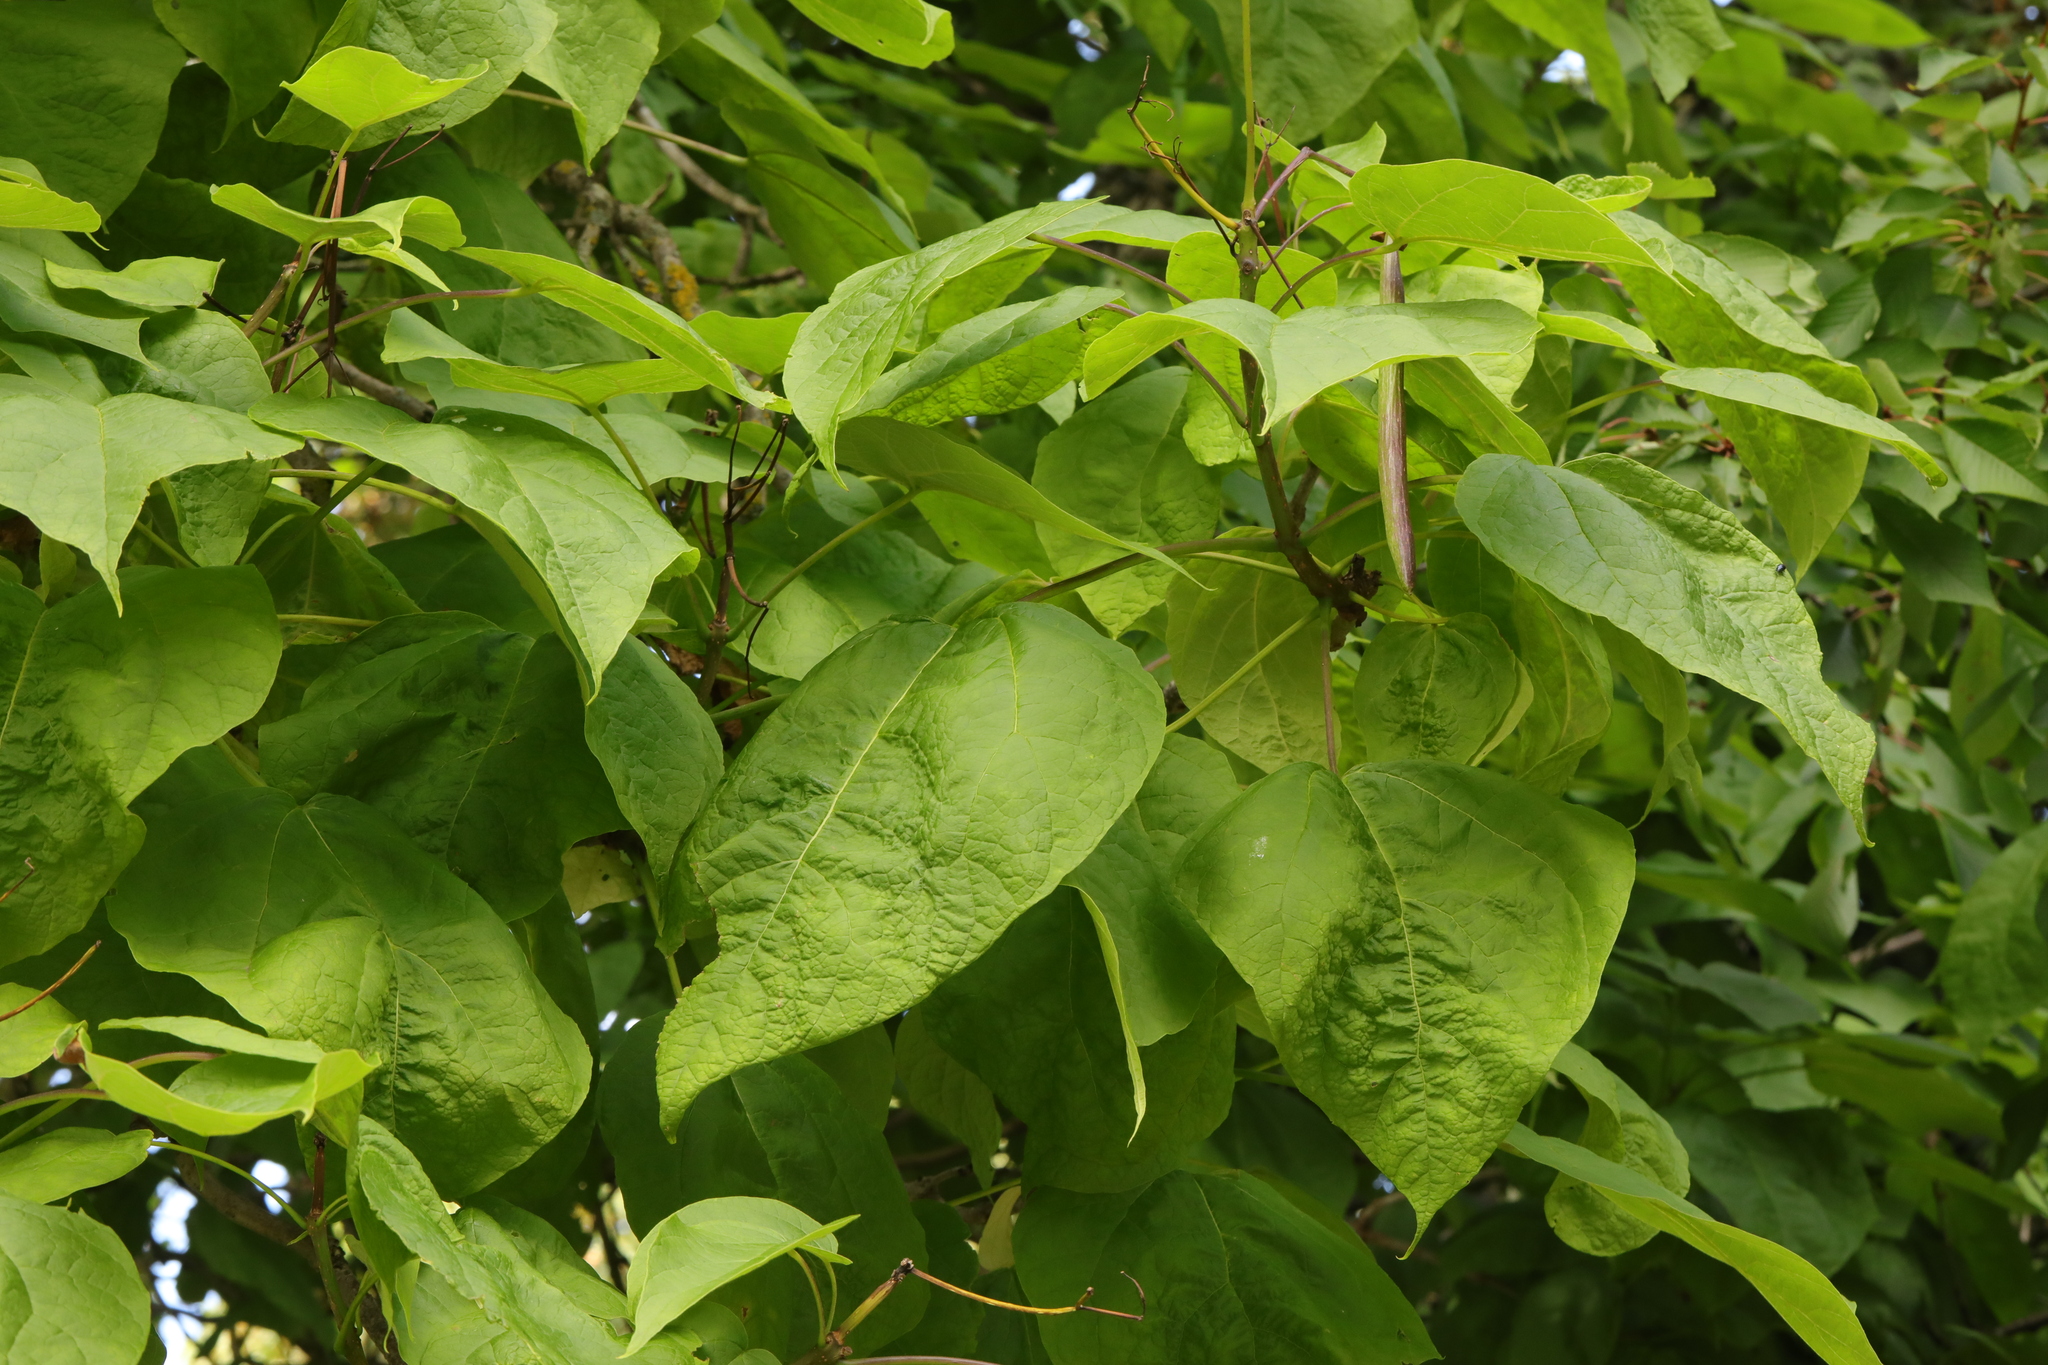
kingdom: Plantae
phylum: Tracheophyta
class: Magnoliopsida
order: Lamiales
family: Bignoniaceae
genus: Catalpa
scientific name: Catalpa bignonioides
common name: Southern catalpa
